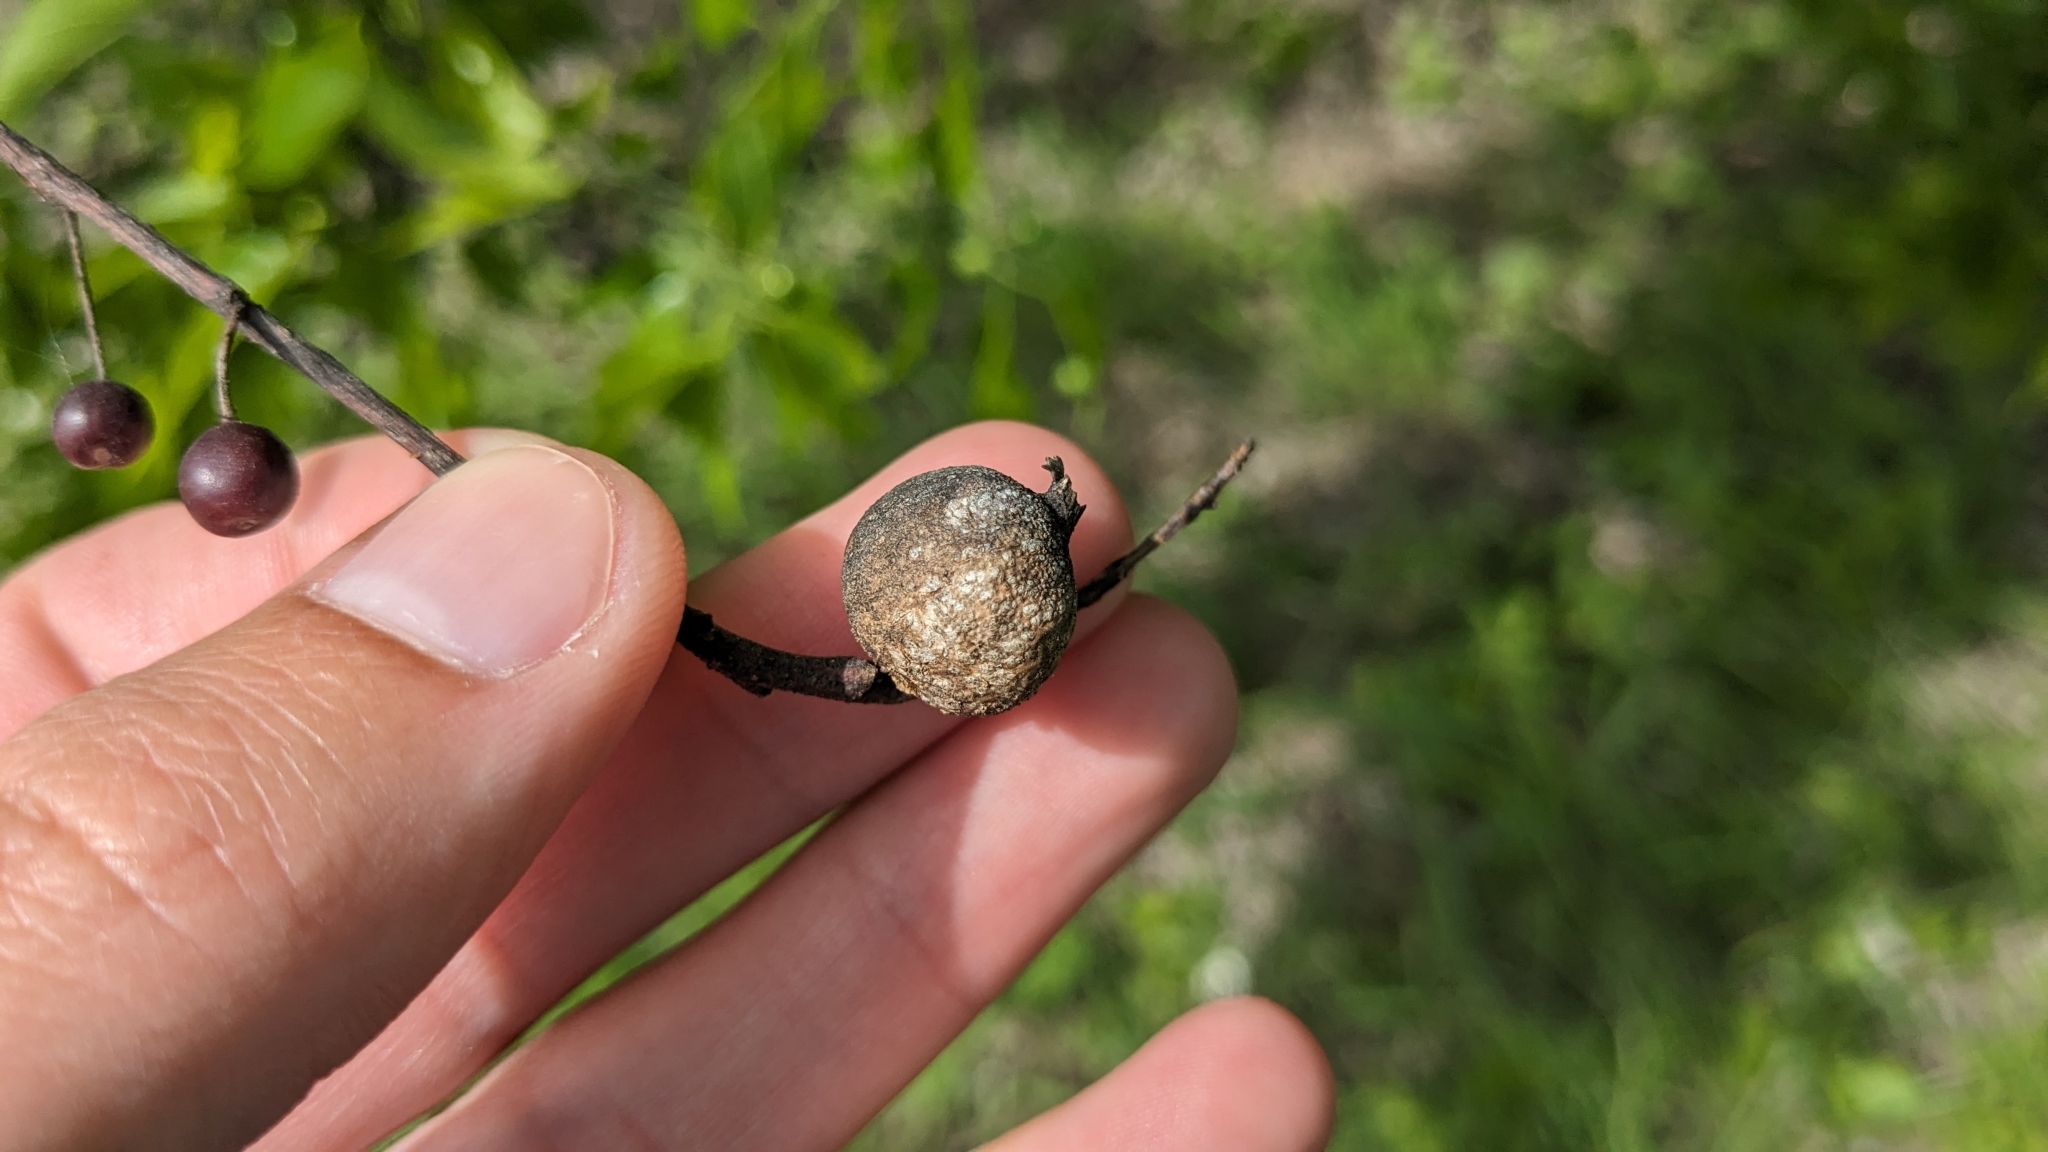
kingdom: Plantae
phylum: Tracheophyta
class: Magnoliopsida
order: Rosales
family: Cannabaceae
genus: Celtis
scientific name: Celtis laevigata
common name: Sugarberry
